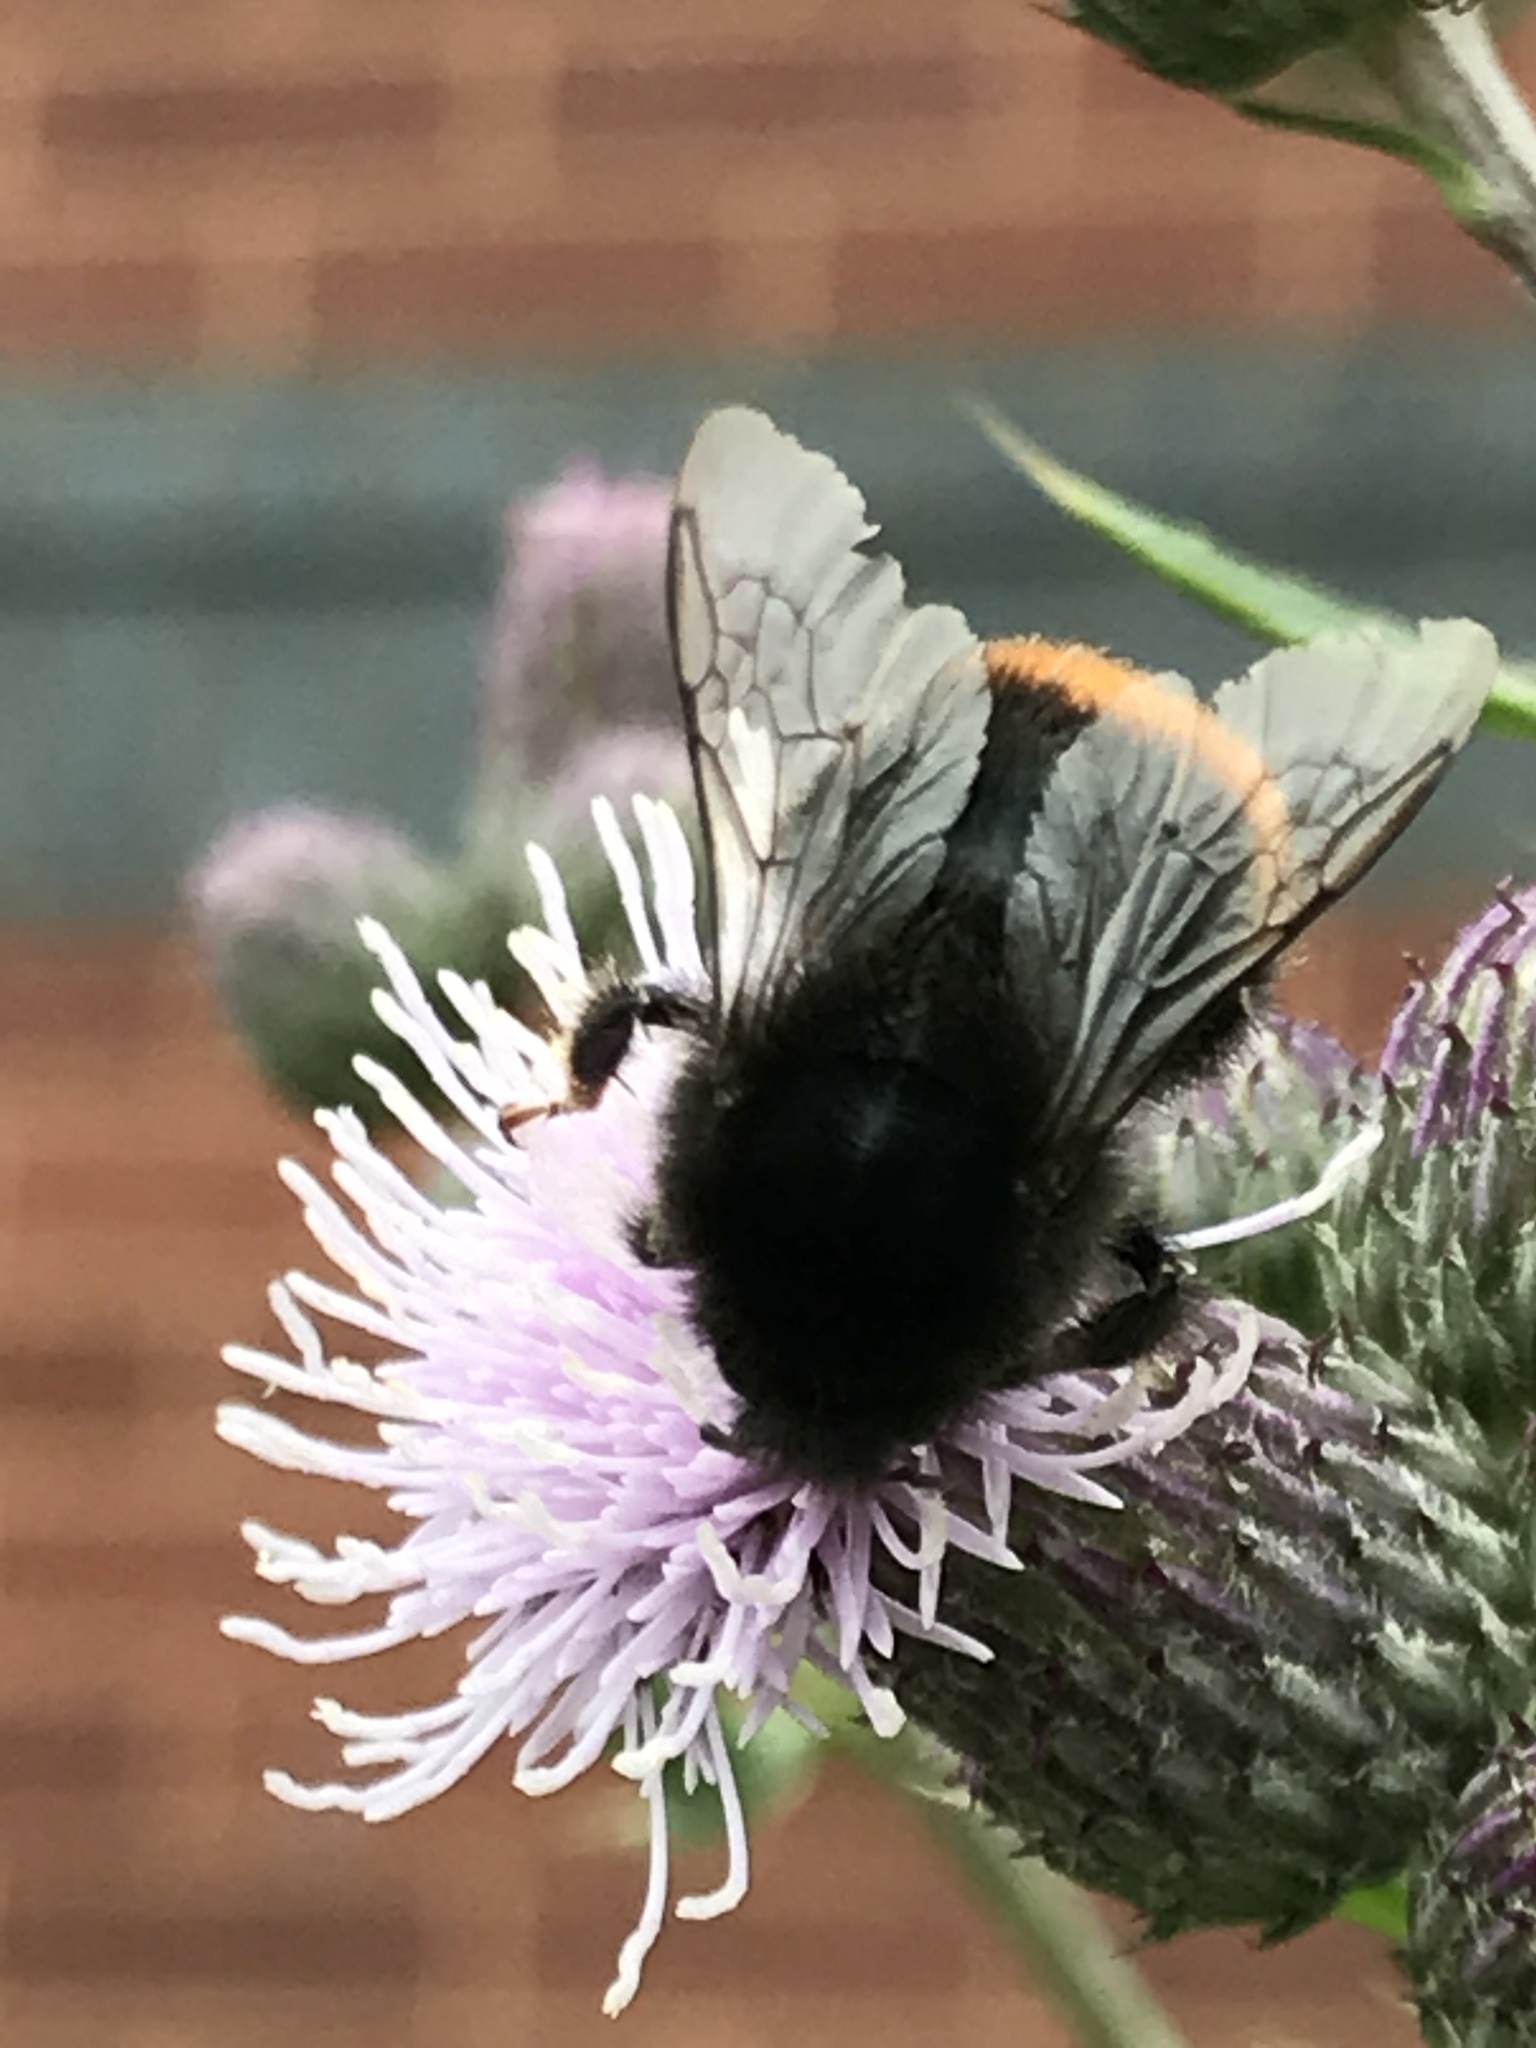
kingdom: Animalia
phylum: Arthropoda
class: Insecta
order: Hymenoptera
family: Apidae
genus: Bombus
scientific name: Bombus lapidarius
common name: Large red-tailed humble-bee
